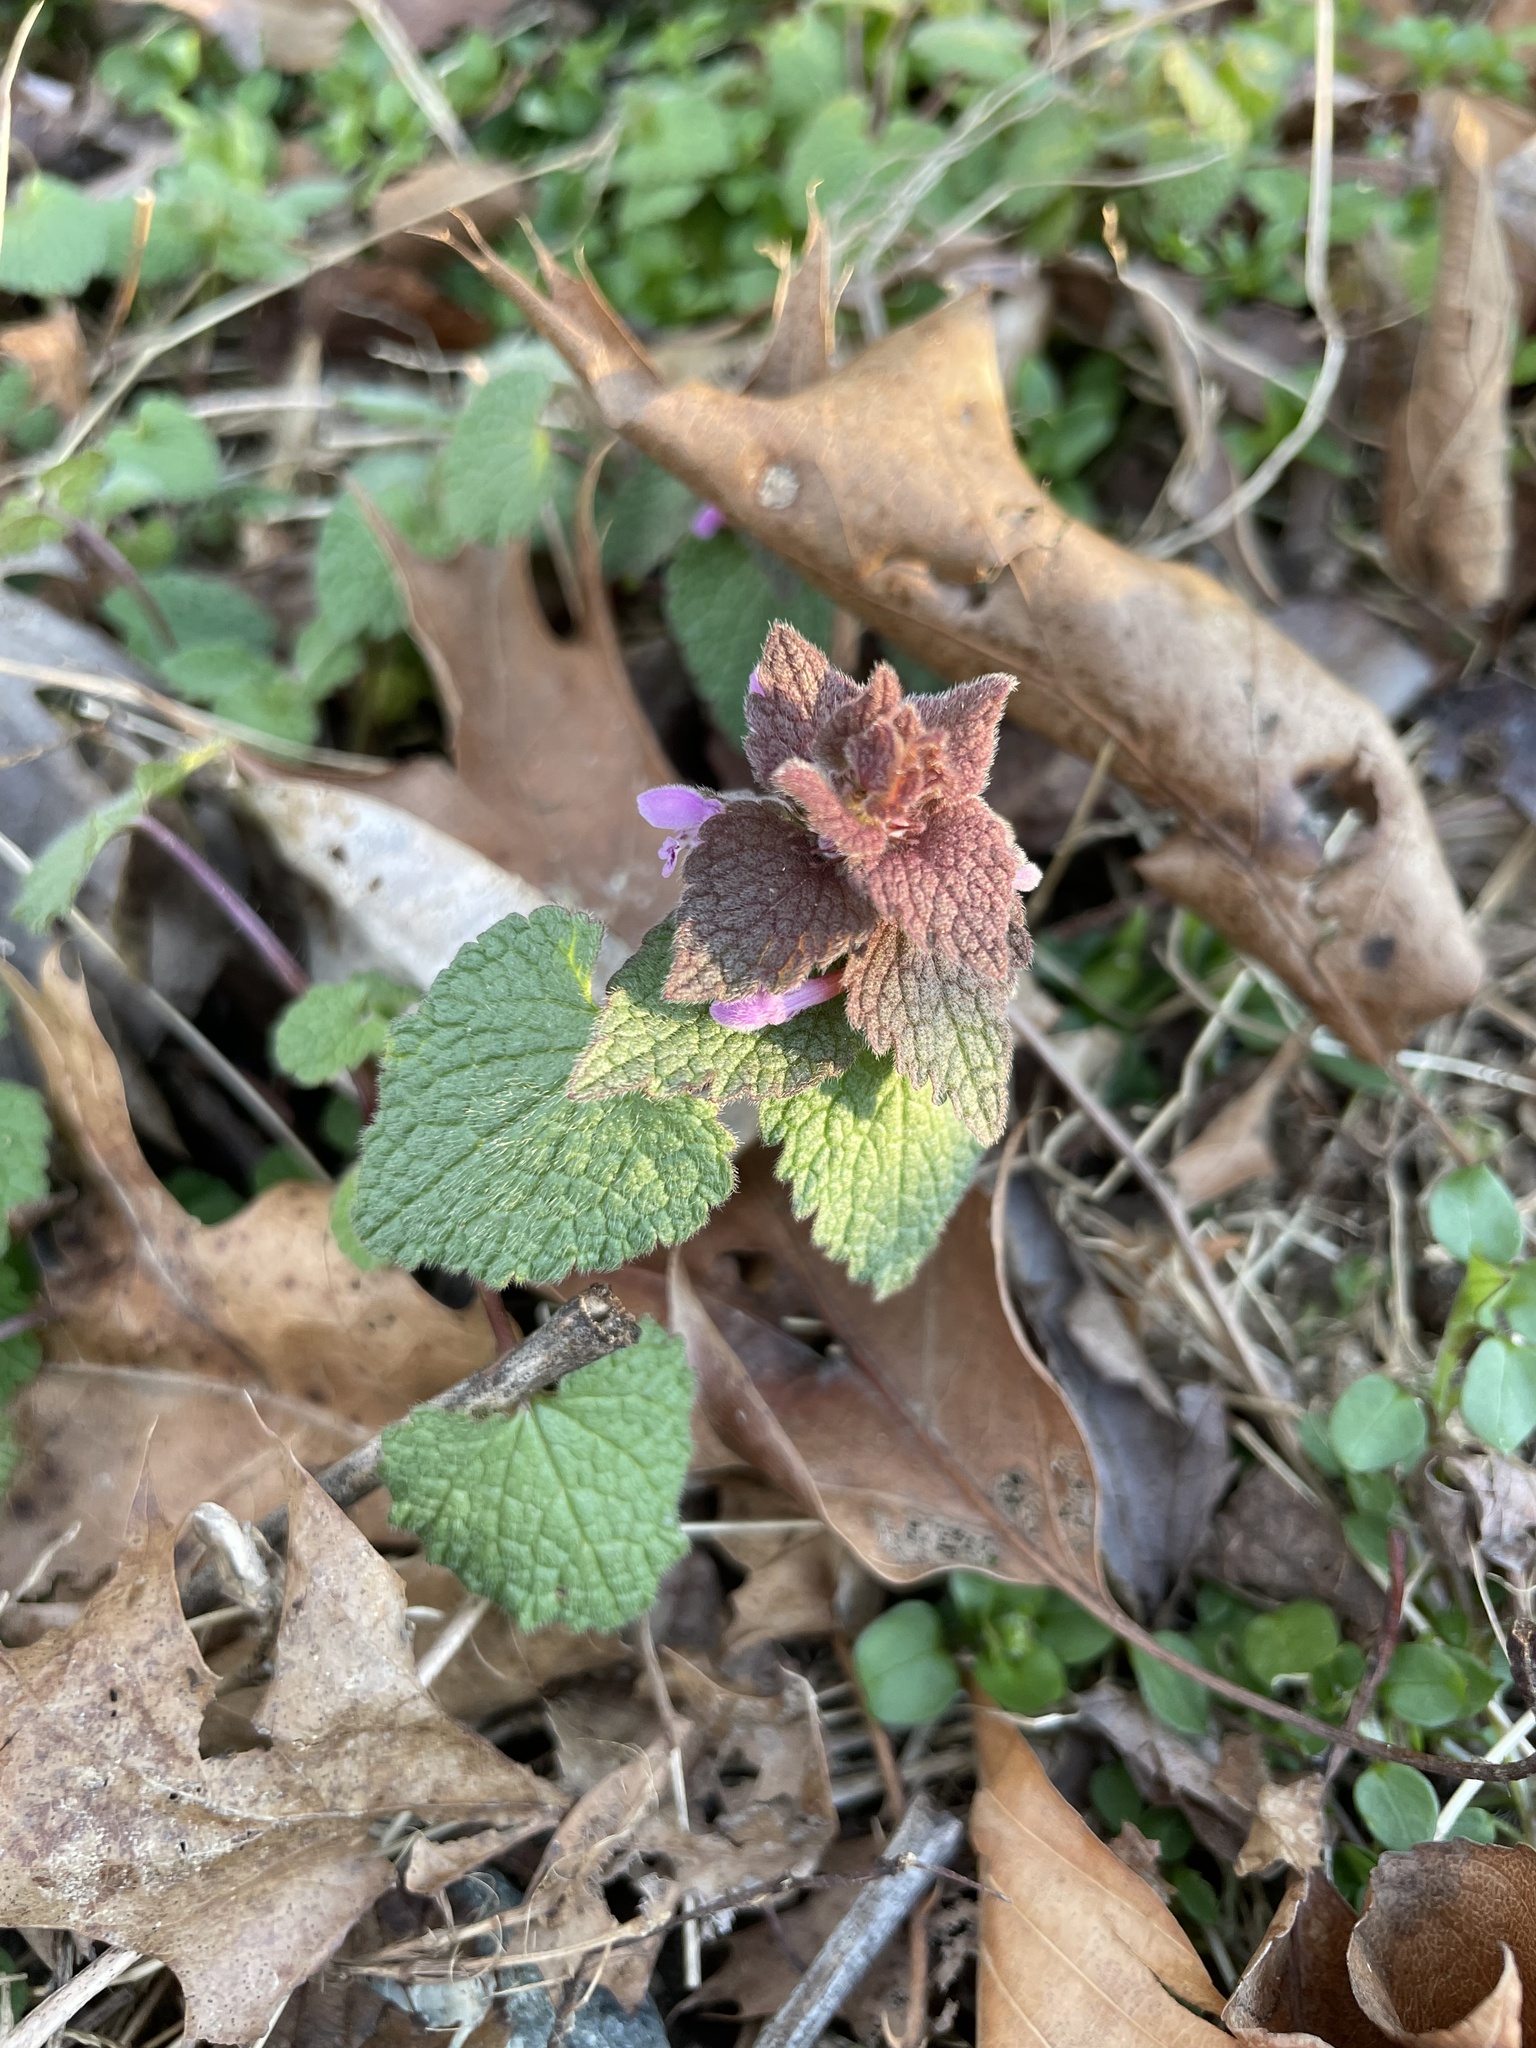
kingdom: Plantae
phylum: Tracheophyta
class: Magnoliopsida
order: Lamiales
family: Lamiaceae
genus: Lamium
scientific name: Lamium purpureum
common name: Red dead-nettle
